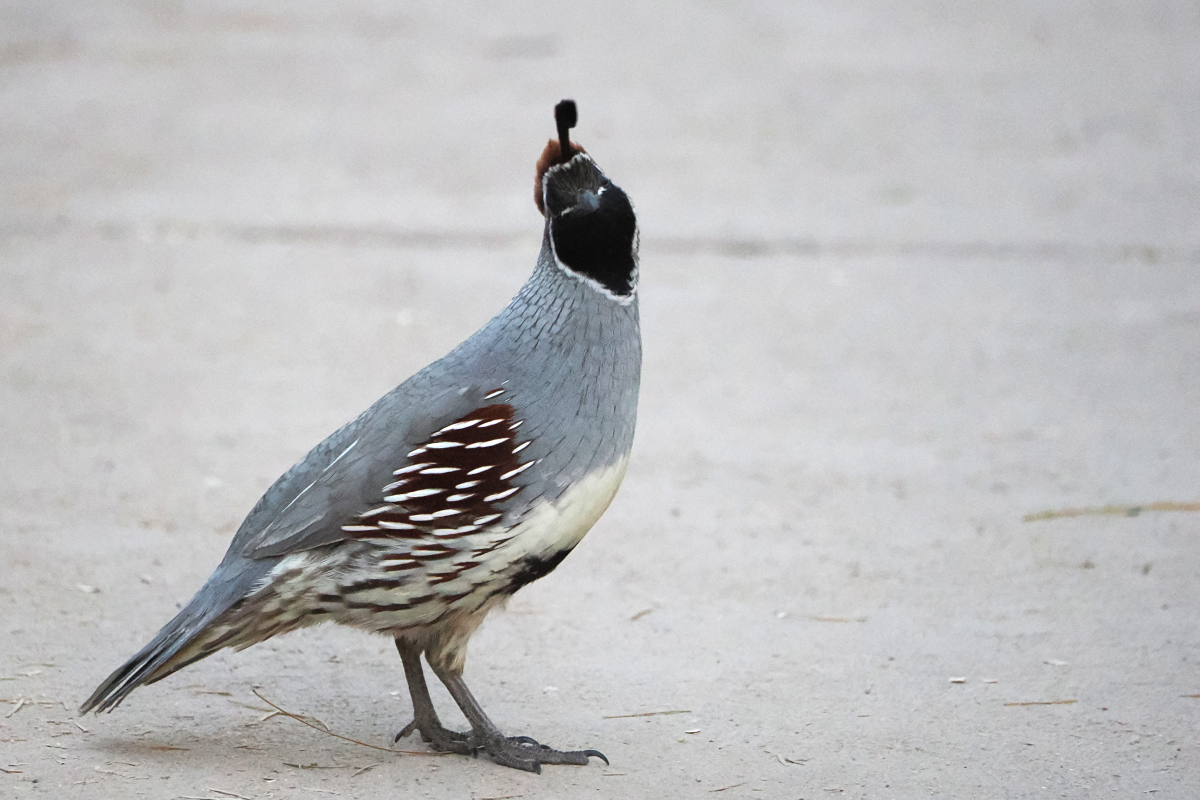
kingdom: Animalia
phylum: Chordata
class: Aves
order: Galliformes
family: Odontophoridae
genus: Callipepla
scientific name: Callipepla gambelii
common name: Gambel's quail
